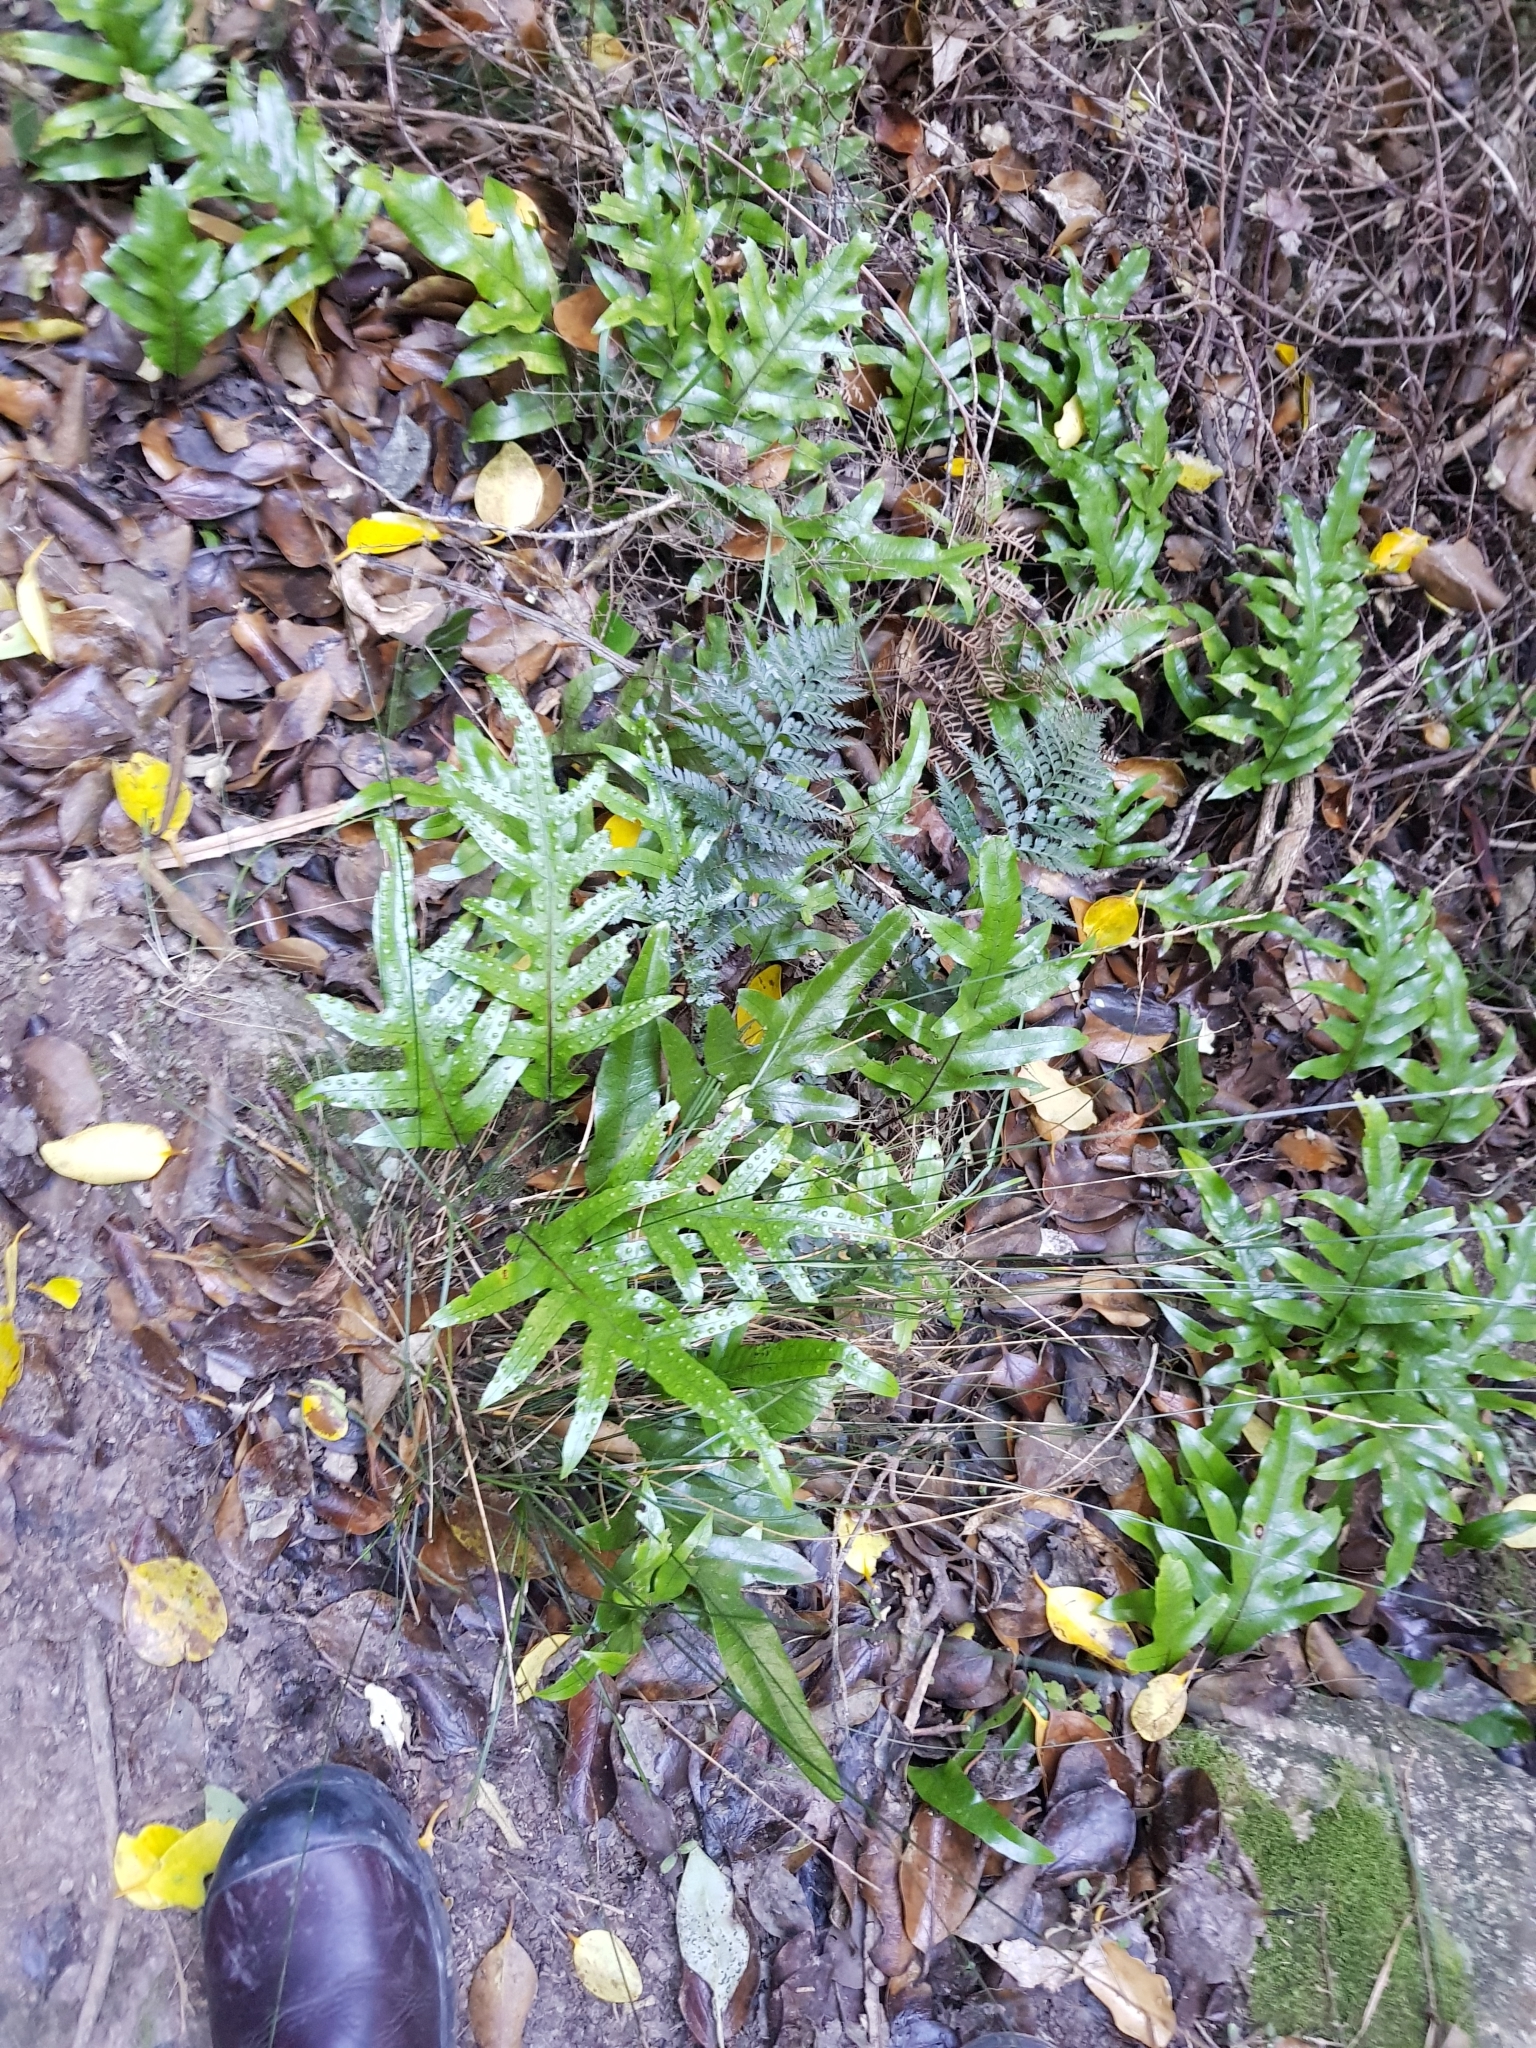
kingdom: Plantae
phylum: Tracheophyta
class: Polypodiopsida
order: Polypodiales
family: Polypodiaceae
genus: Lecanopteris
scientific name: Lecanopteris pustulata
